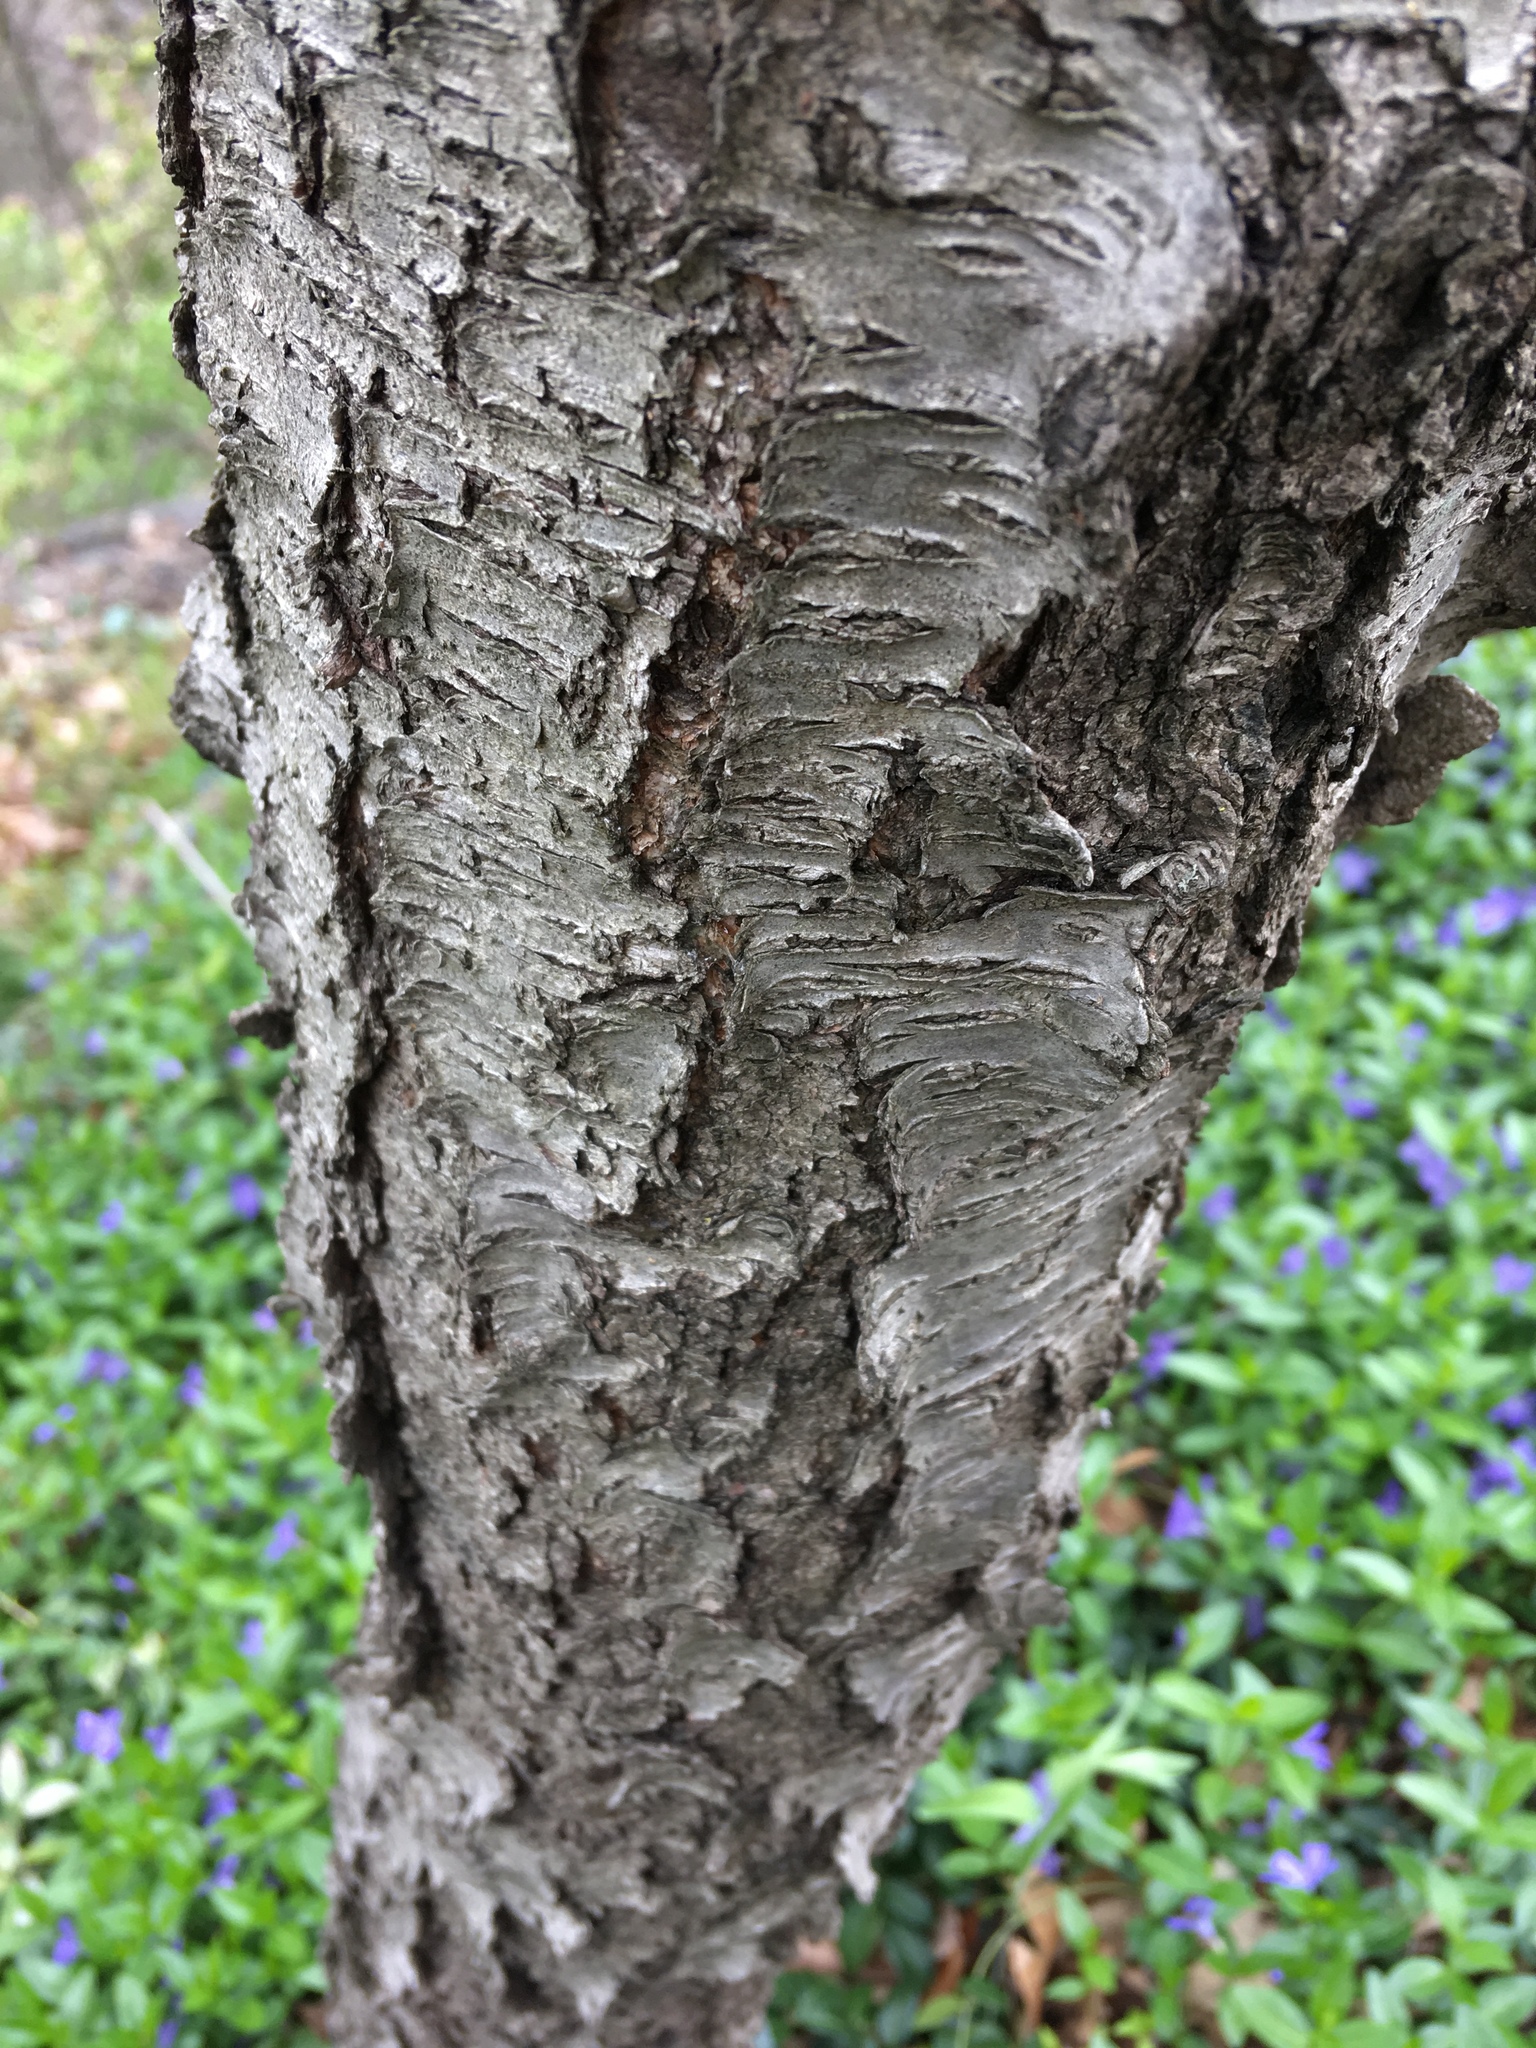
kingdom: Plantae
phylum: Tracheophyta
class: Magnoliopsida
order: Rosales
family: Rosaceae
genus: Prunus
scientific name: Prunus serotina
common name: Black cherry
